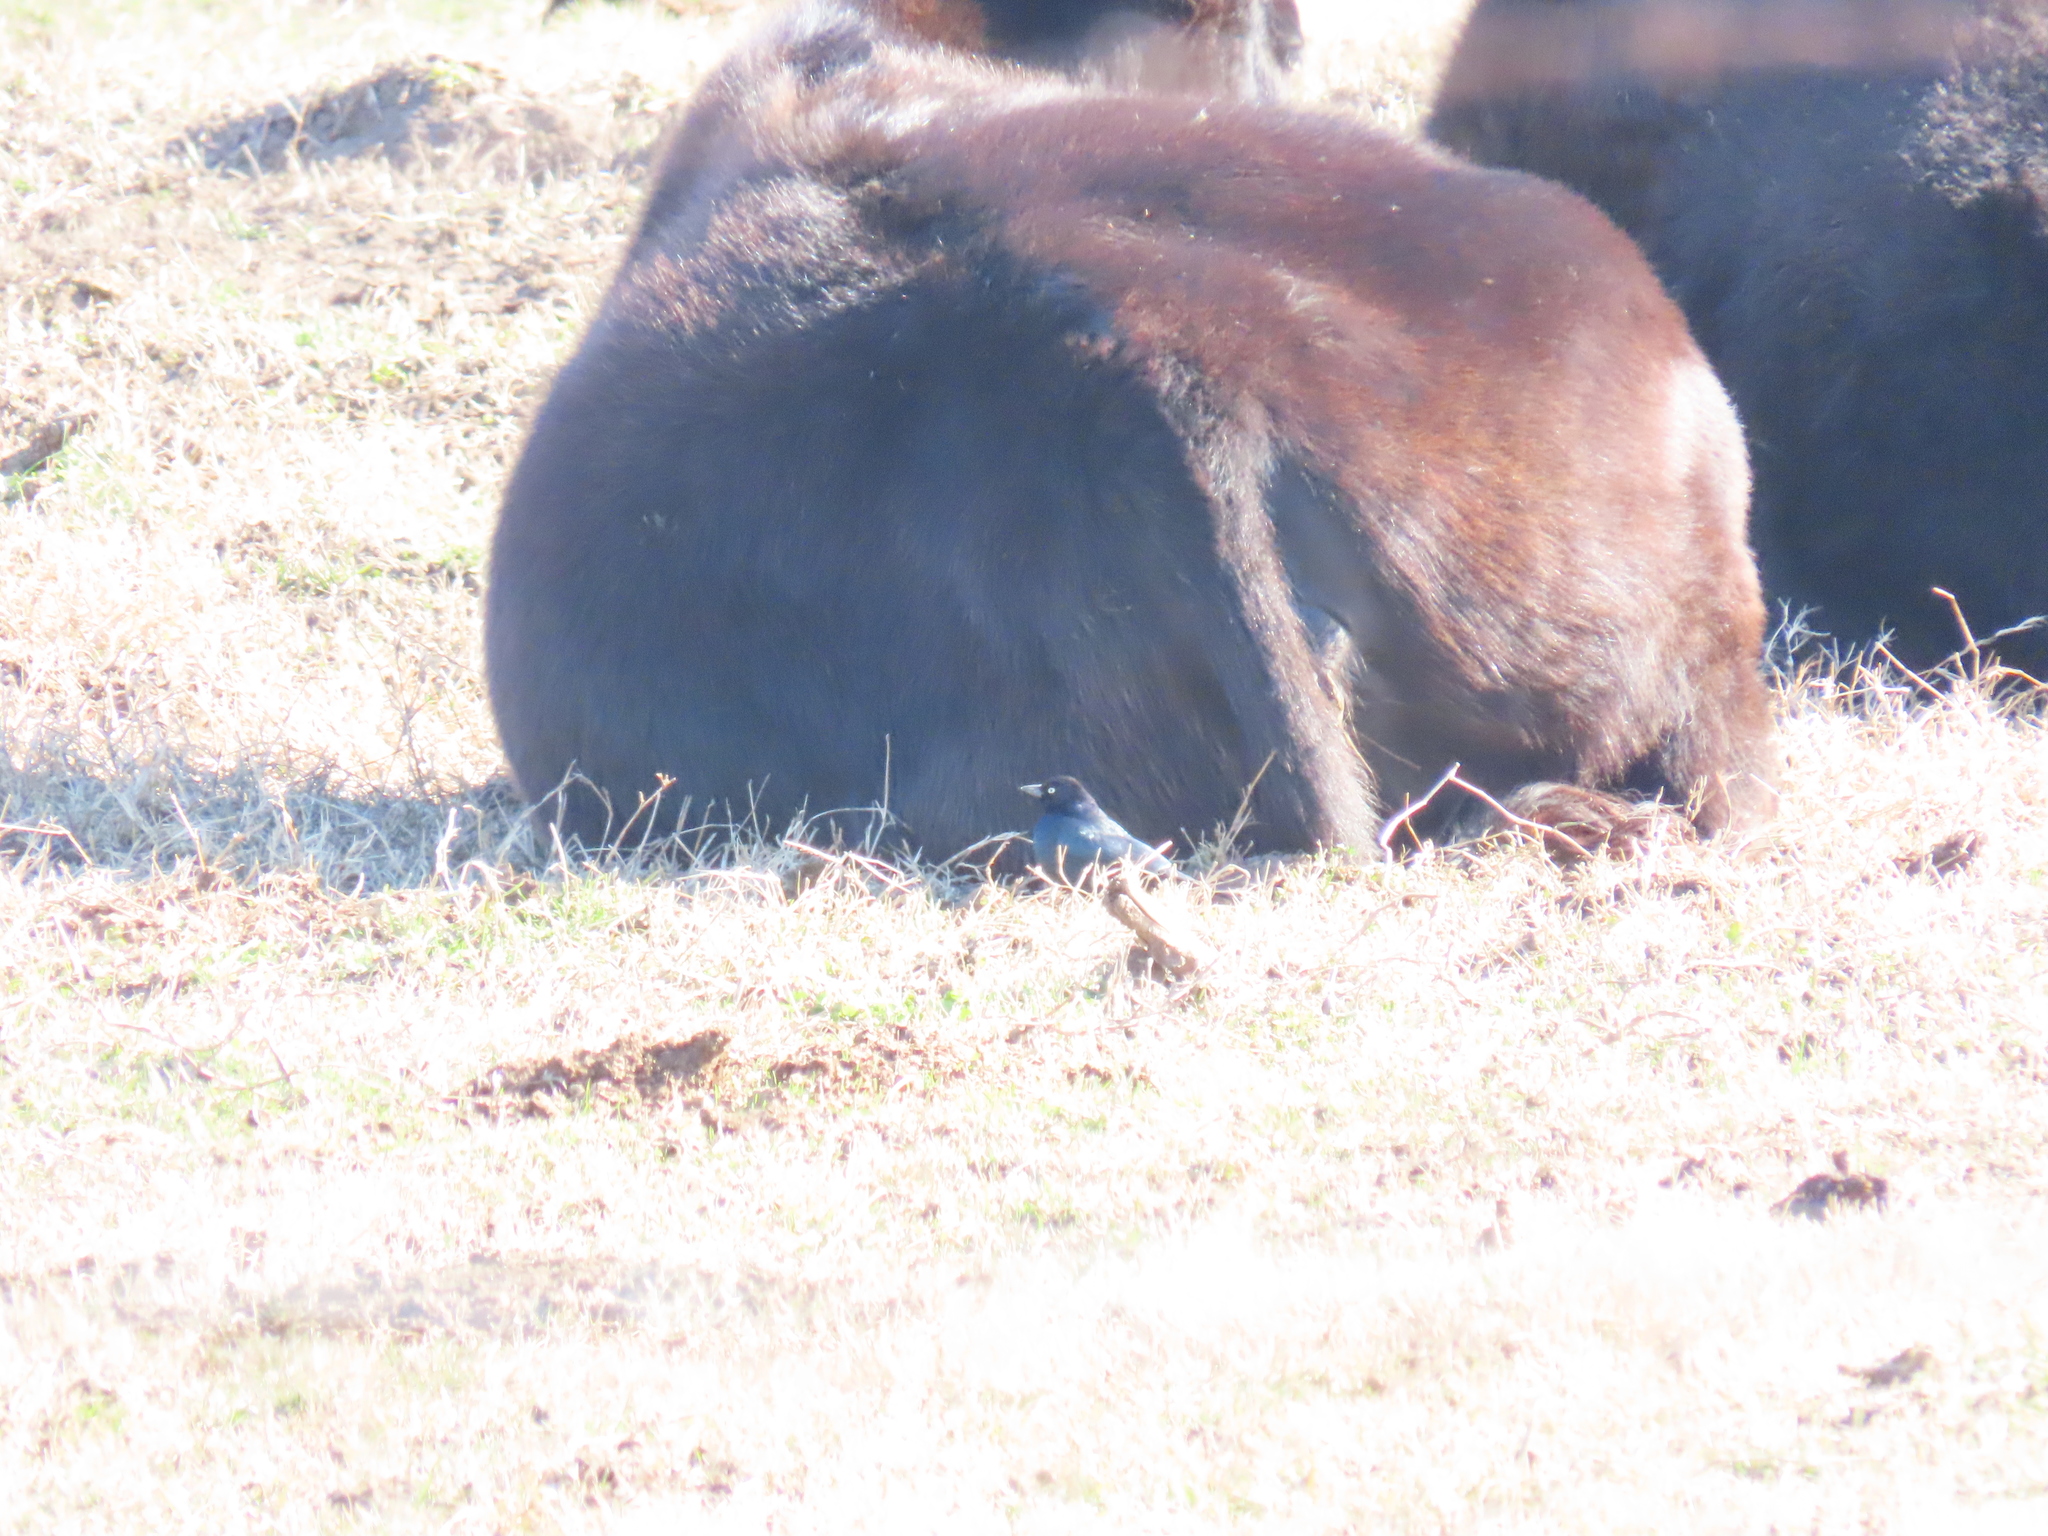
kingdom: Animalia
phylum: Chordata
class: Aves
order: Passeriformes
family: Icteridae
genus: Euphagus
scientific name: Euphagus cyanocephalus
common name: Brewer's blackbird
